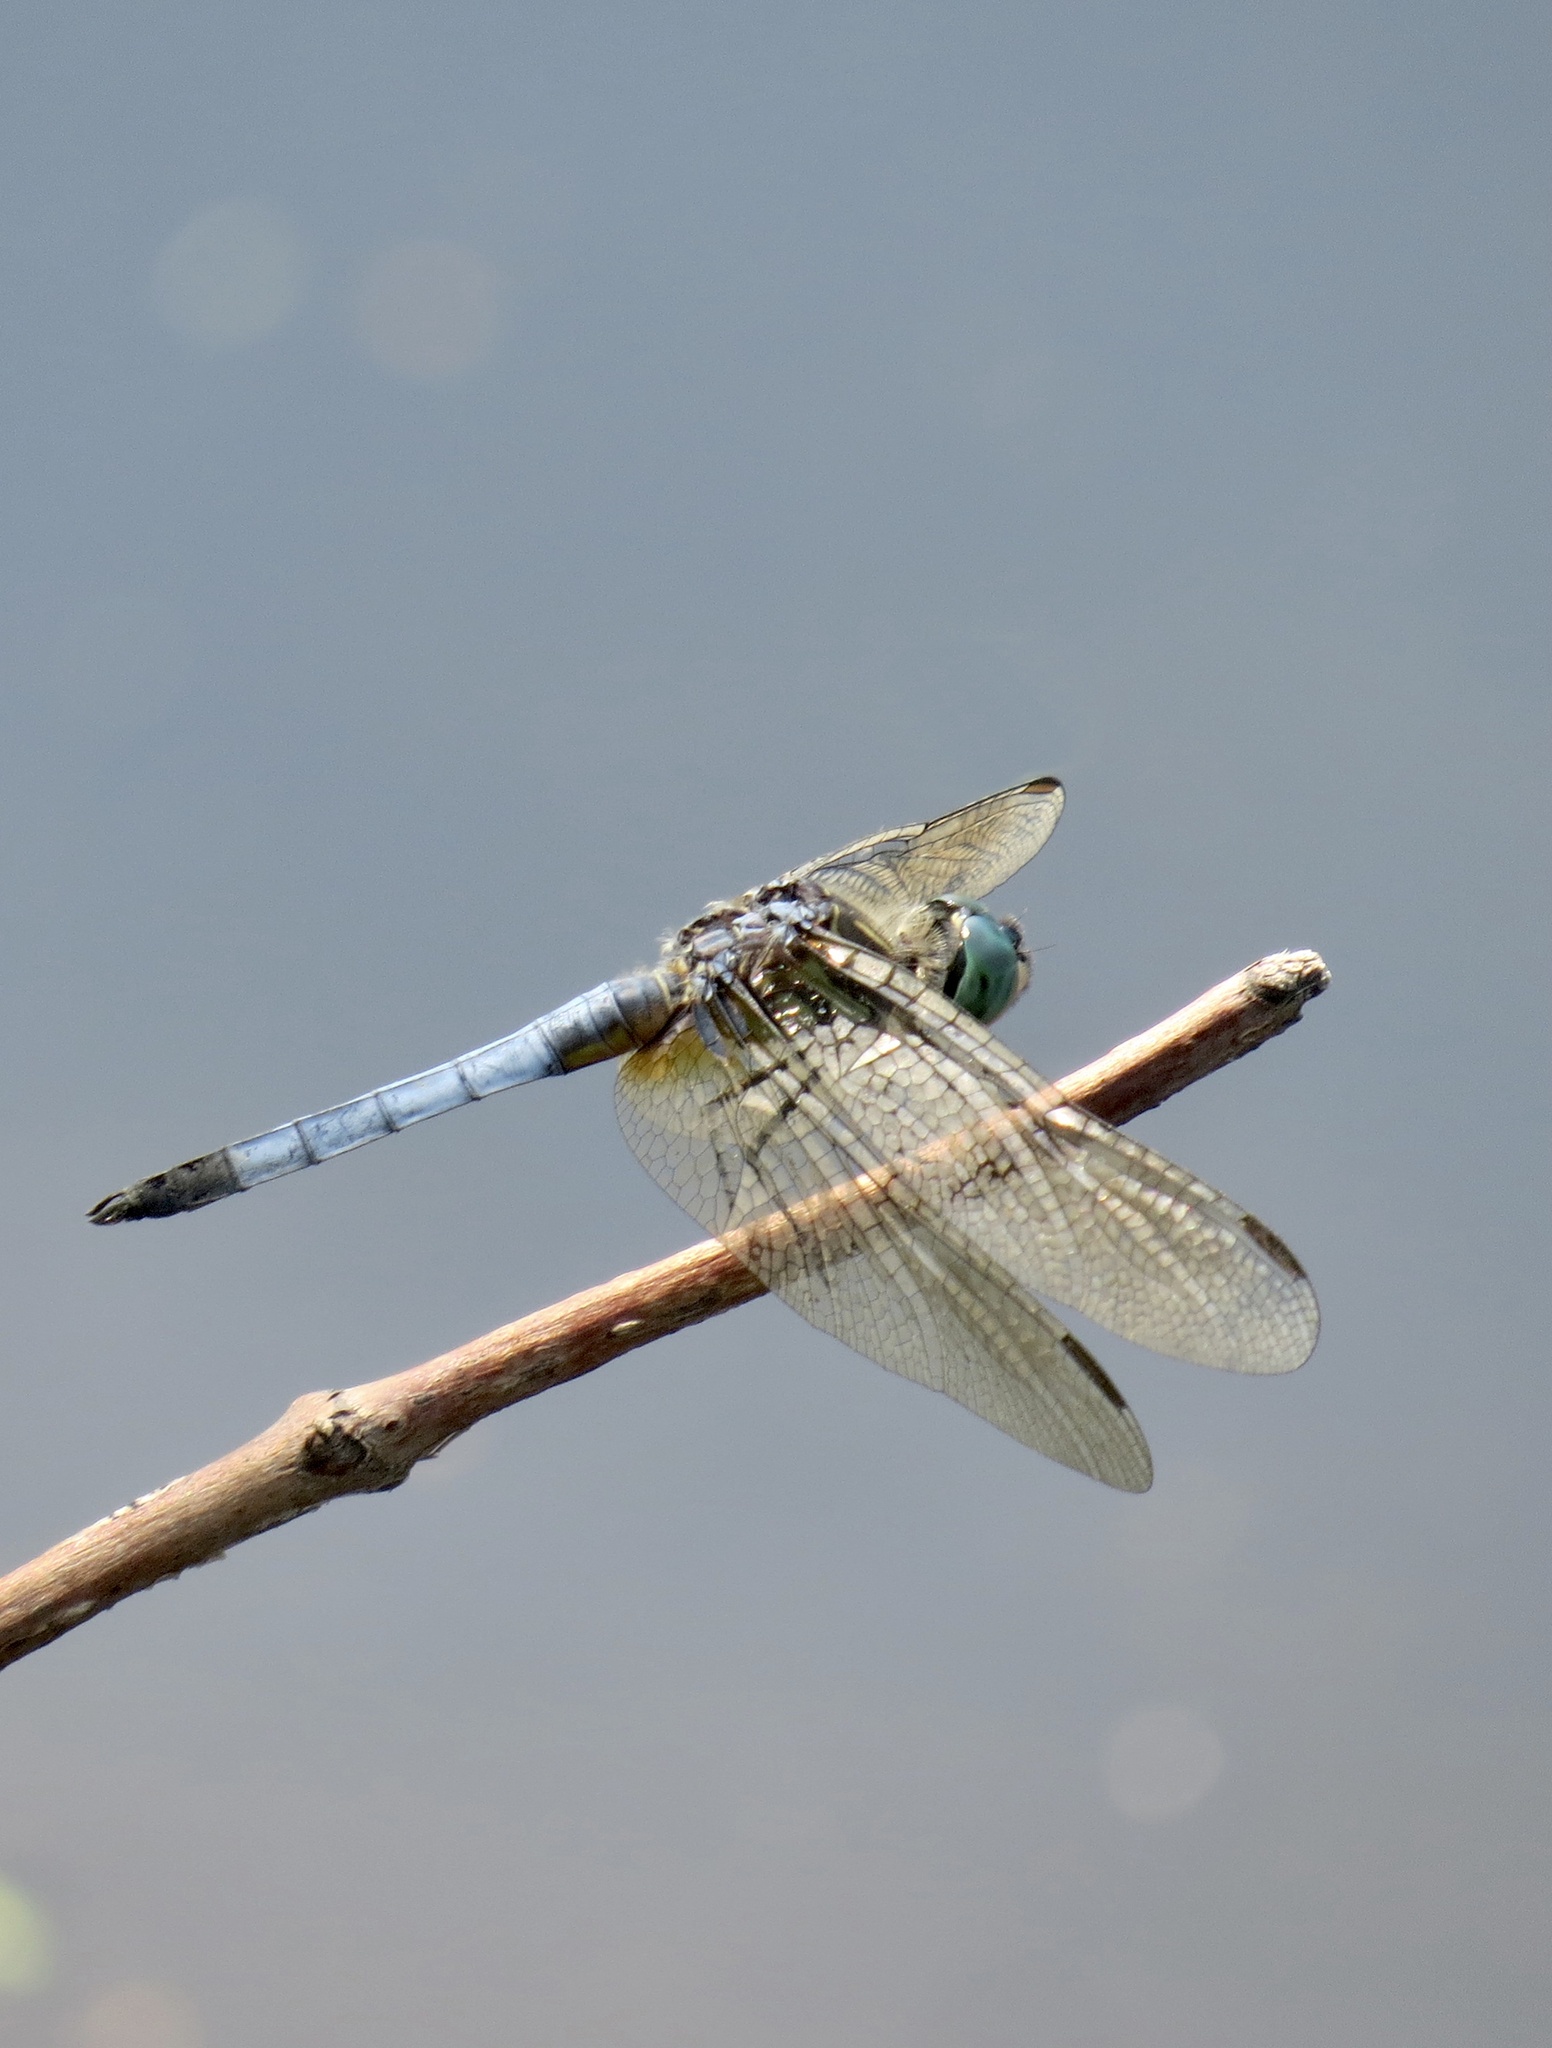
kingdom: Animalia
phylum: Arthropoda
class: Insecta
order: Odonata
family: Libellulidae
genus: Pachydiplax
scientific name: Pachydiplax longipennis
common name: Blue dasher
